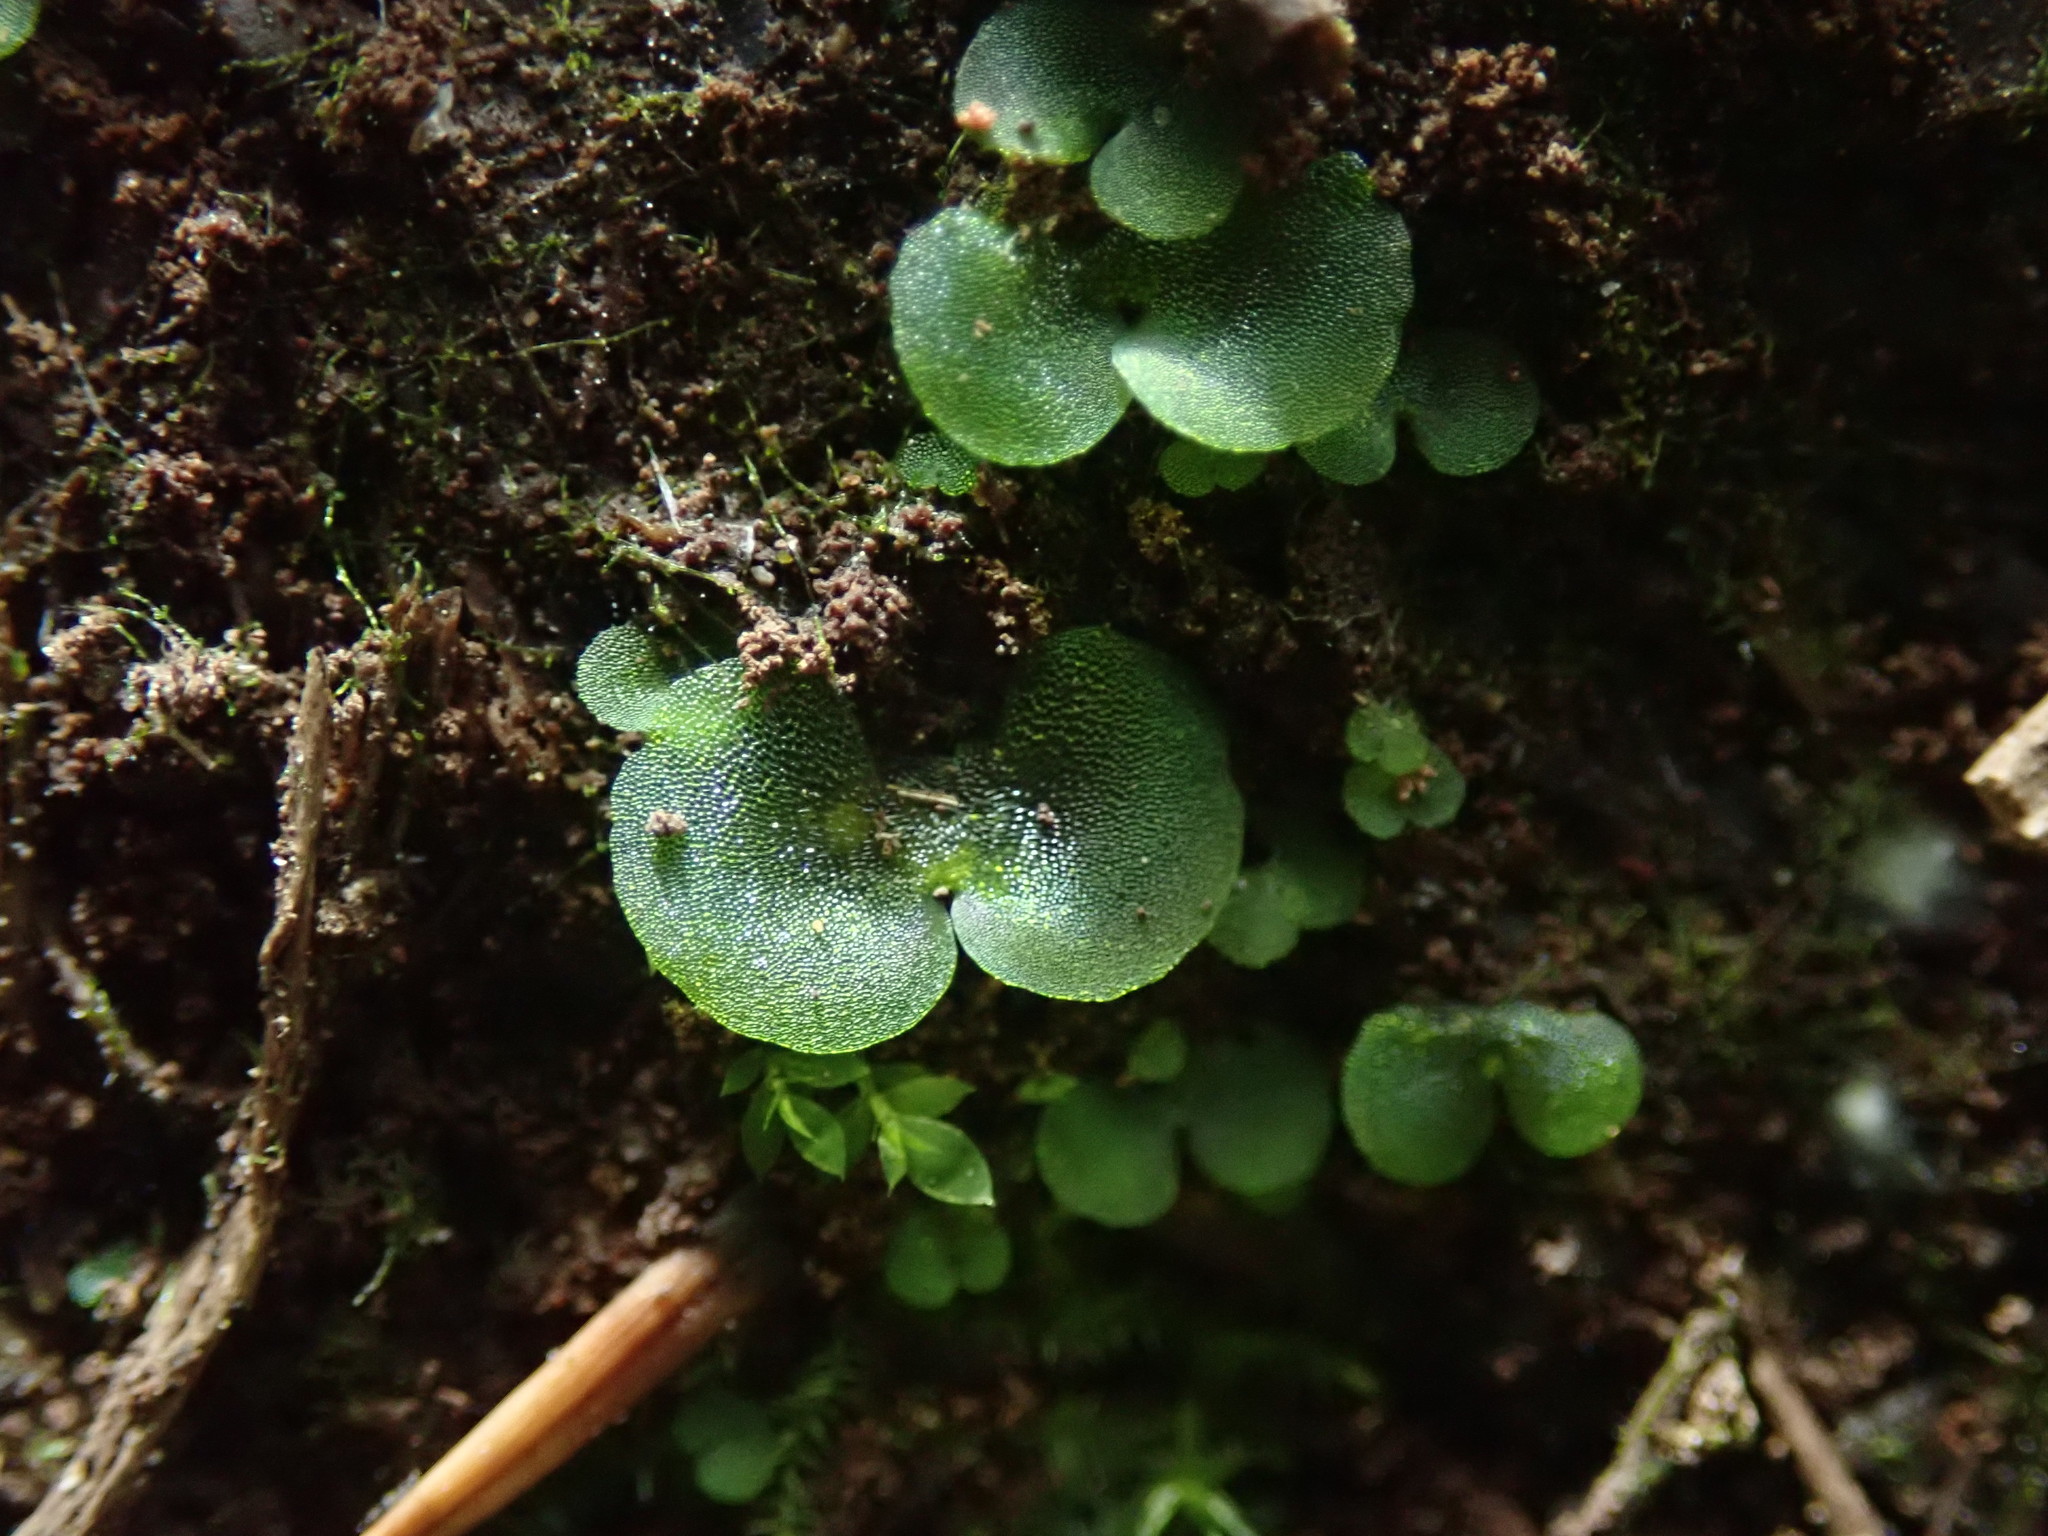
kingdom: Plantae
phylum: Tracheophyta
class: Polypodiopsida
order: Polypodiales
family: Athyriaceae
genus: Athyrium
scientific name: Athyrium filix-femina
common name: Lady fern
